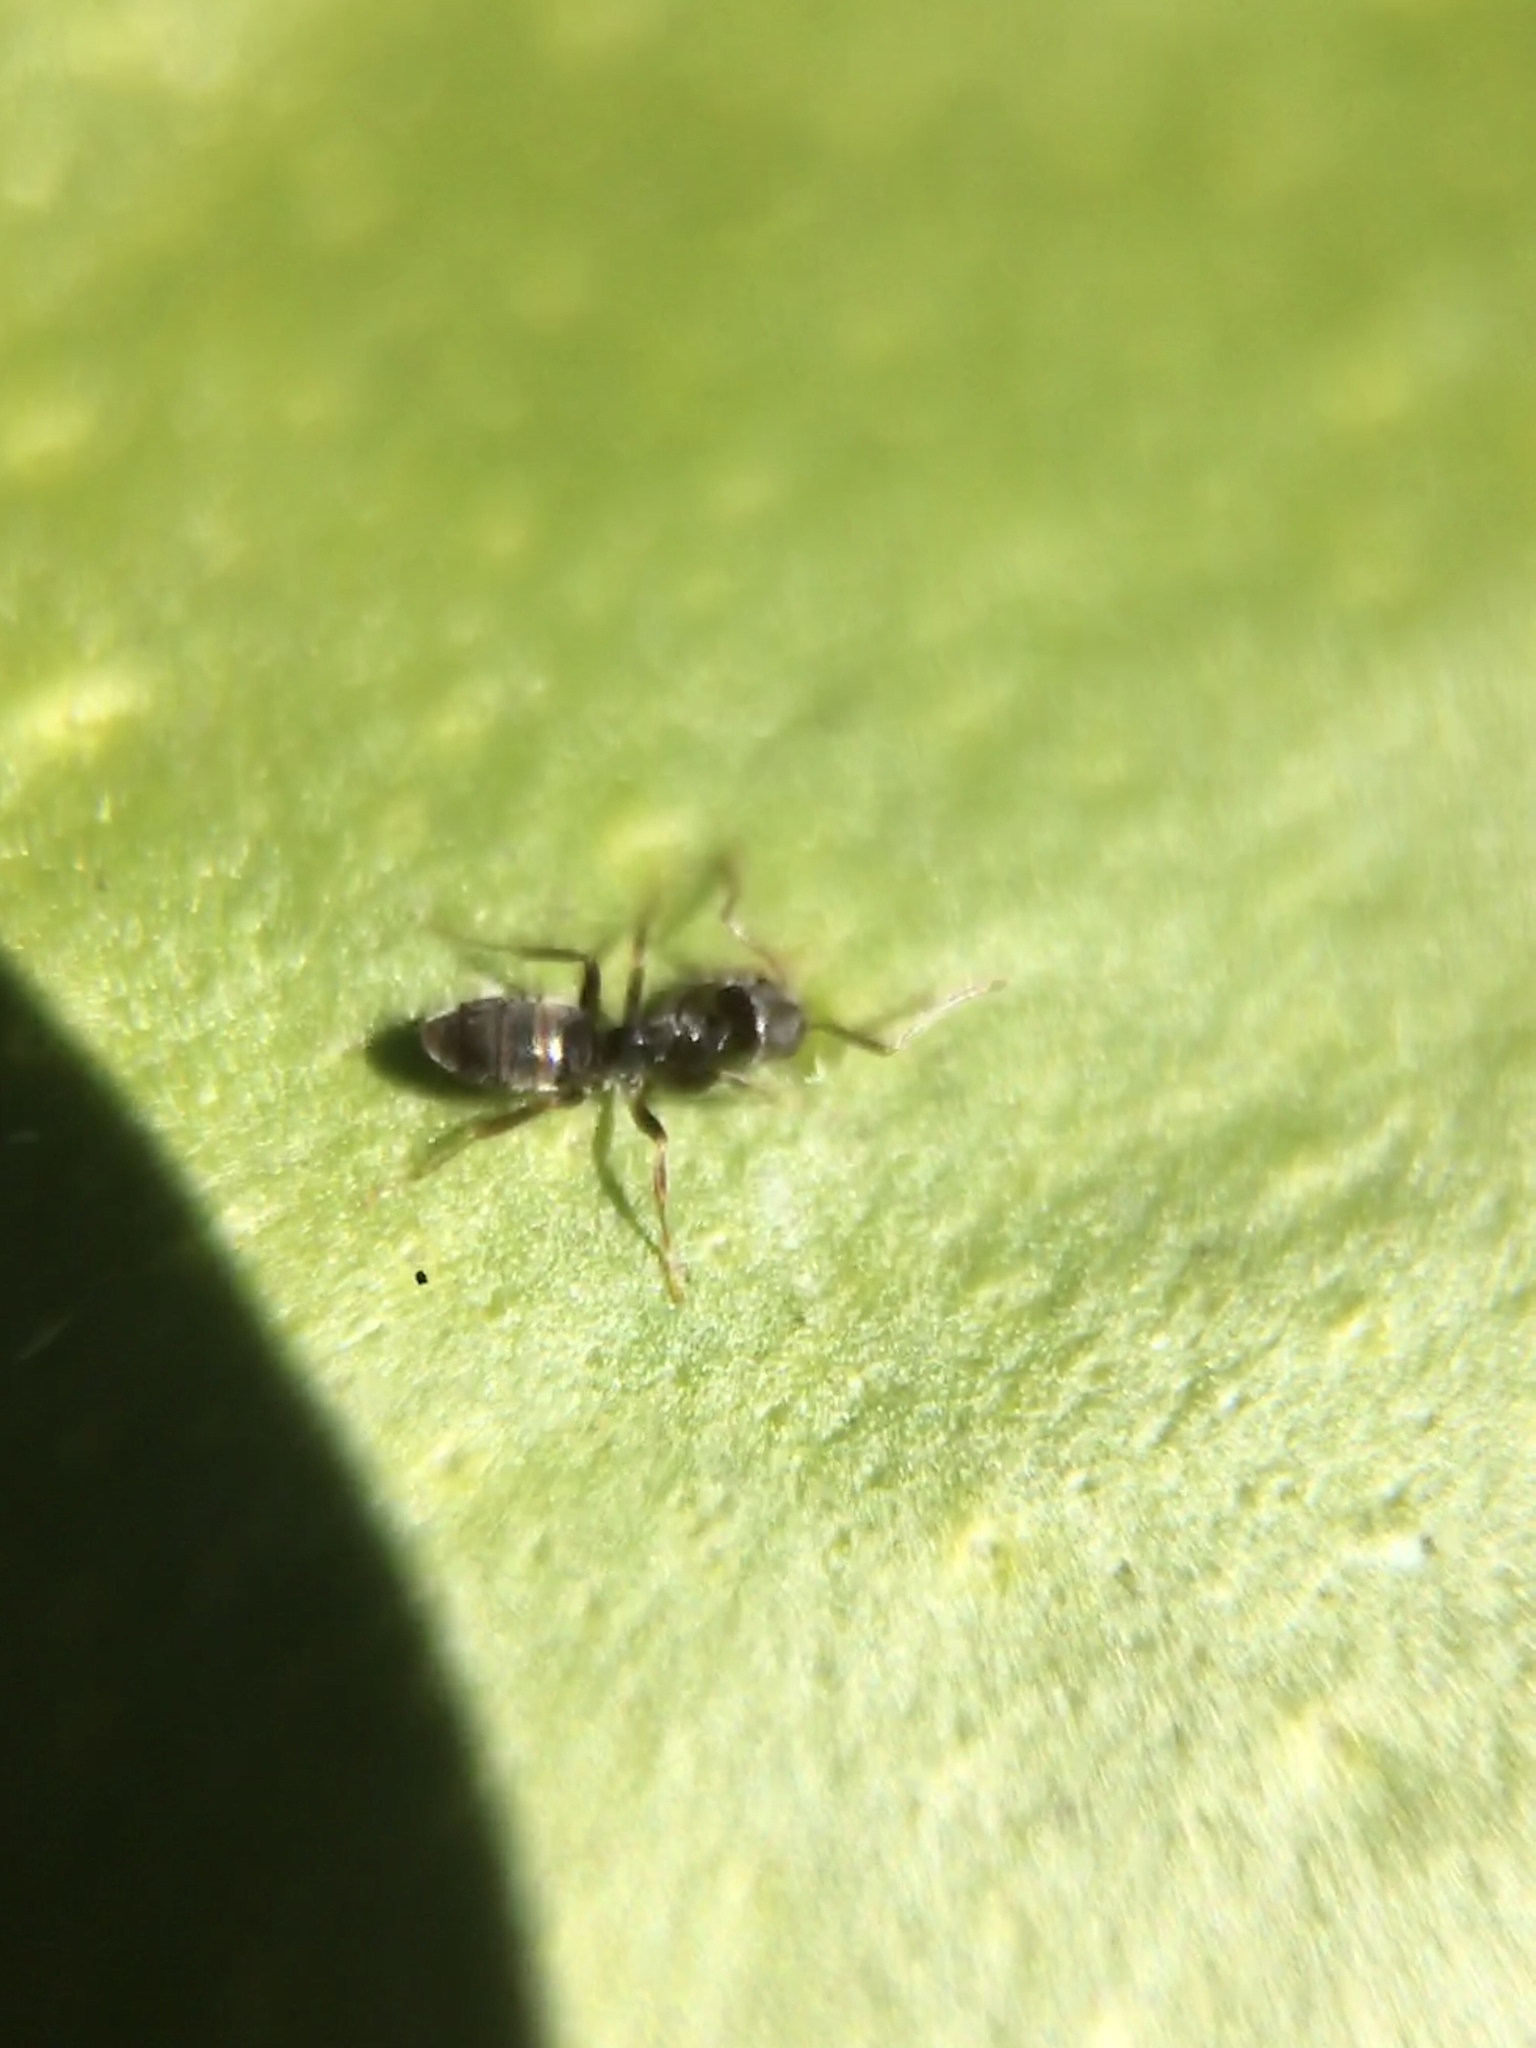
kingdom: Animalia
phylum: Arthropoda
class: Insecta
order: Hymenoptera
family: Formicidae
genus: Tapinoma
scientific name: Tapinoma sessile
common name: Odorous house ant
